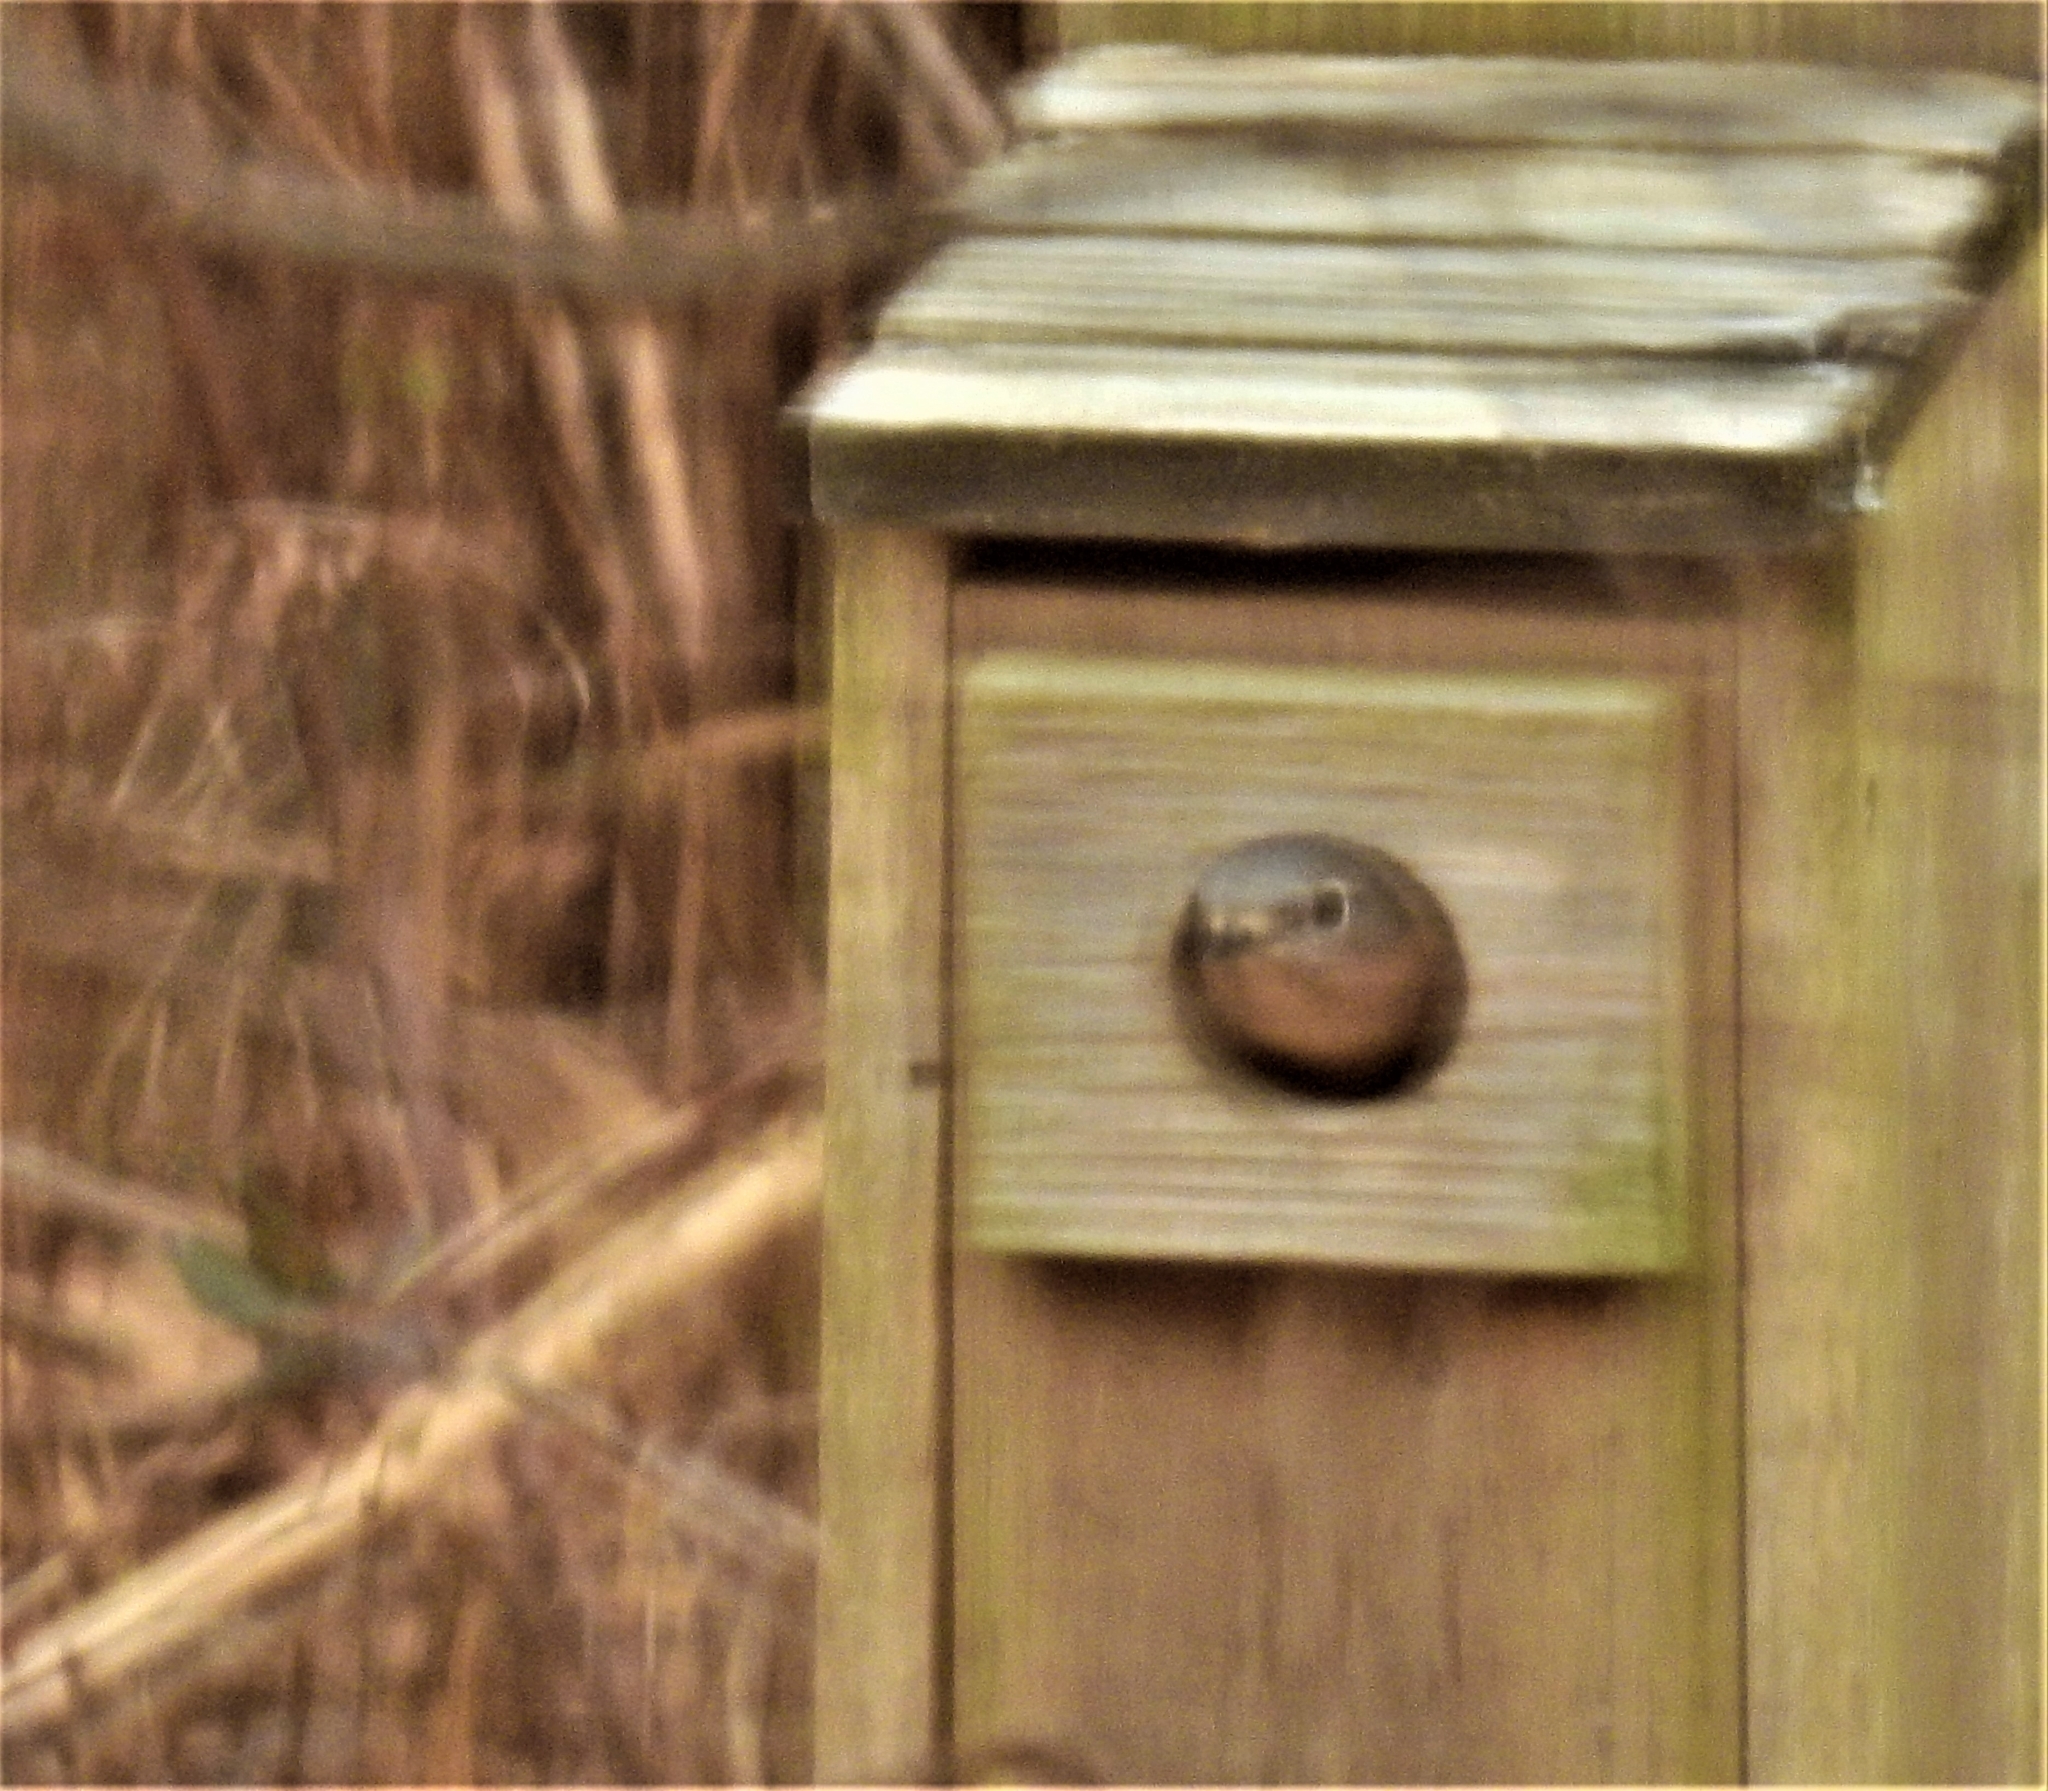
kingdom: Animalia
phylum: Chordata
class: Aves
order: Passeriformes
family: Turdidae
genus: Sialia
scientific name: Sialia sialis
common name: Eastern bluebird
